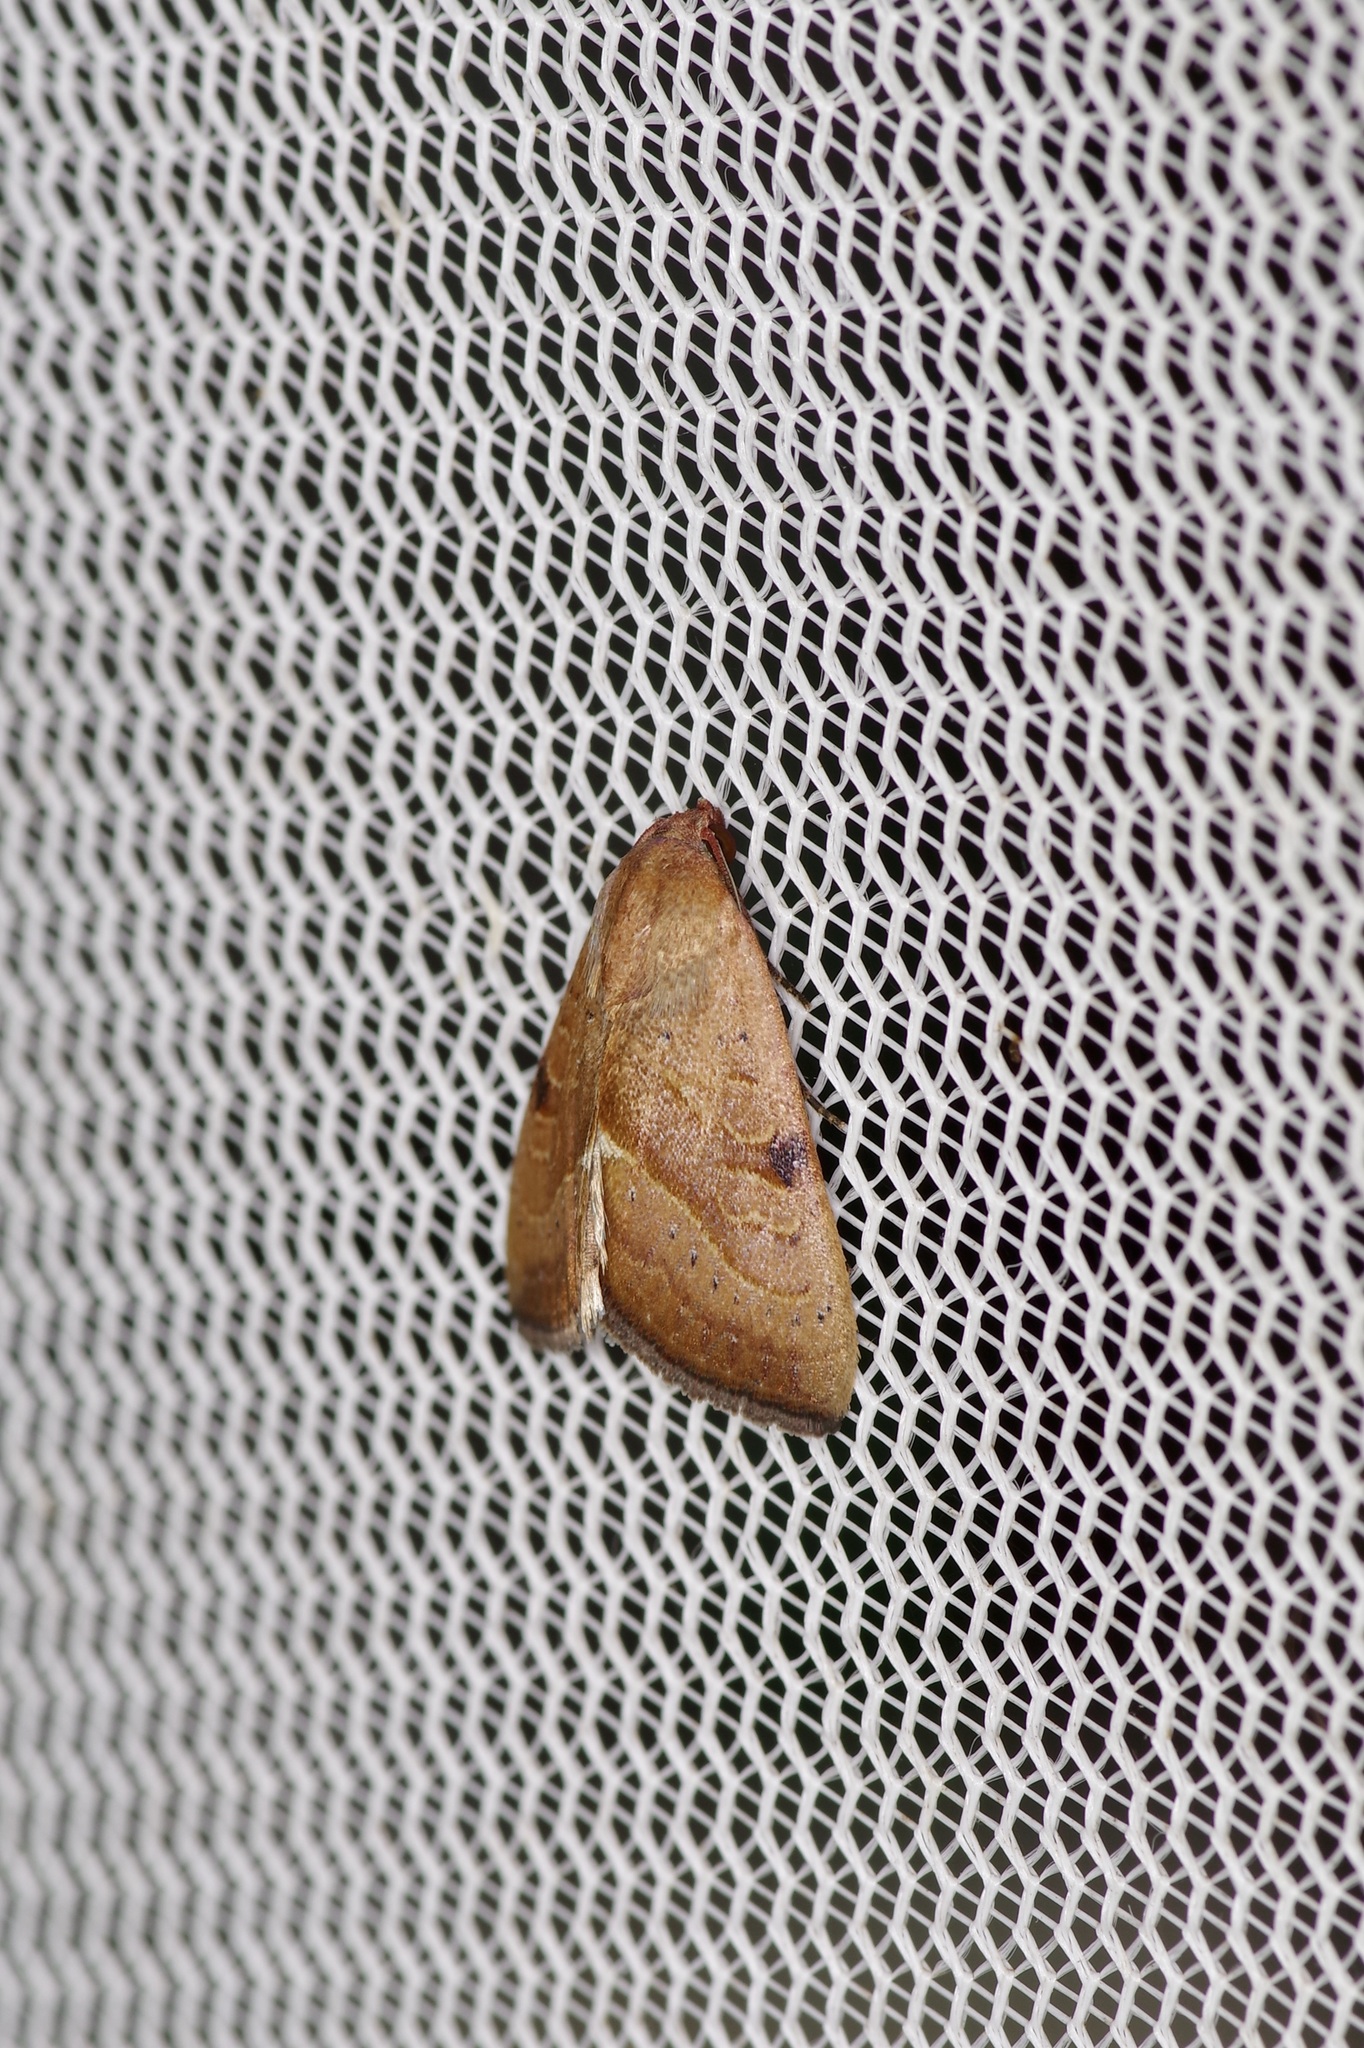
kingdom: Animalia
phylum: Arthropoda
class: Insecta
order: Lepidoptera
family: Noctuidae
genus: Galgula
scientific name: Galgula partita
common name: Wedgeling
